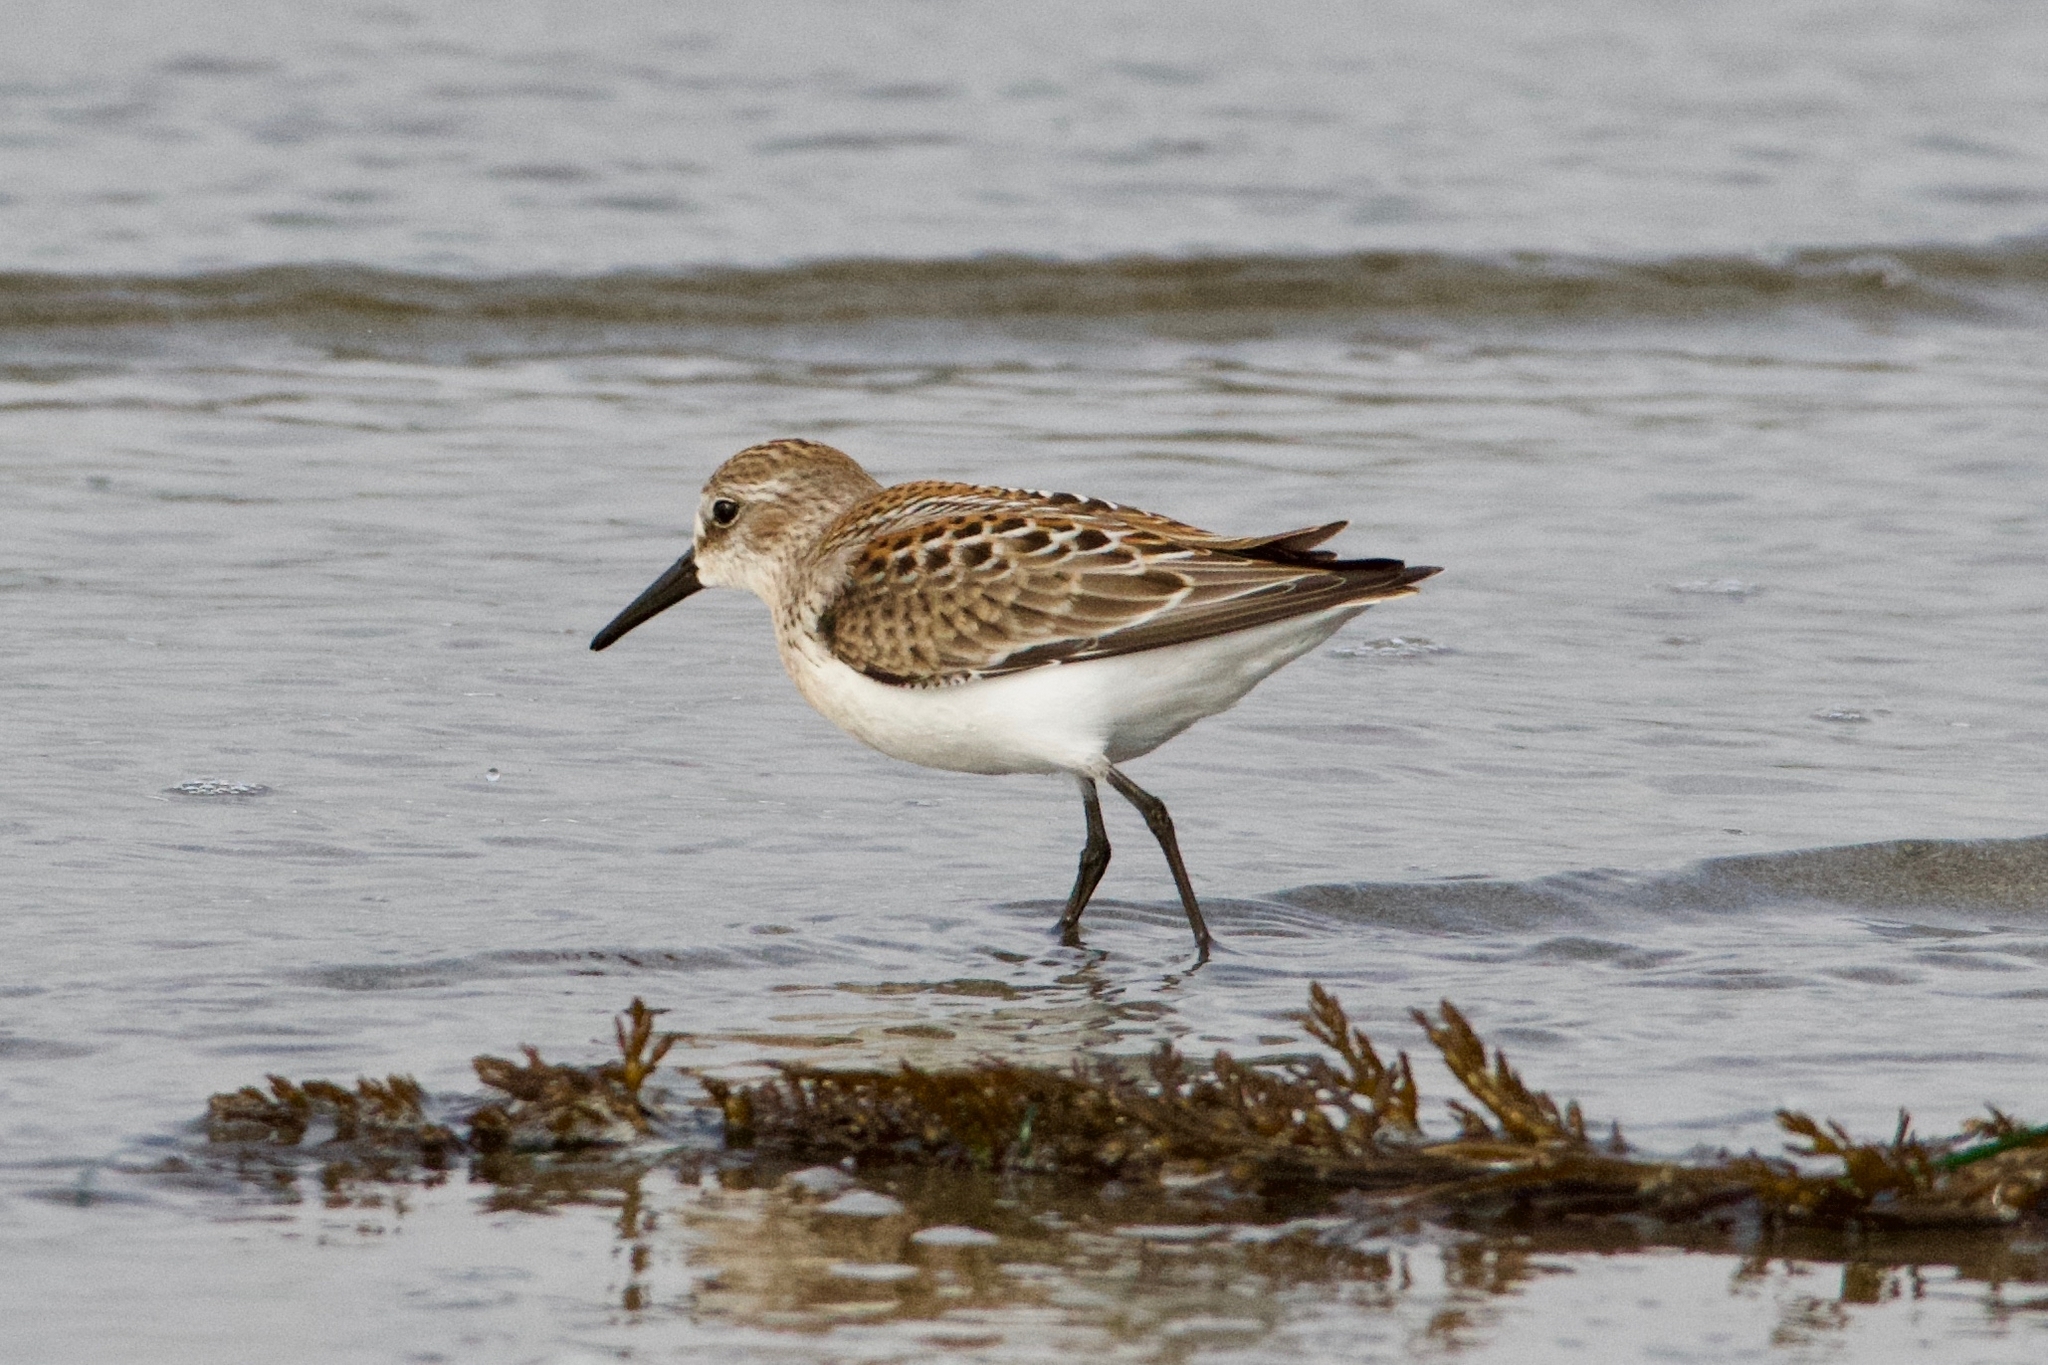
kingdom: Animalia
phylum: Chordata
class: Aves
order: Charadriiformes
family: Scolopacidae
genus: Calidris
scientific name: Calidris mauri
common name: Western sandpiper
